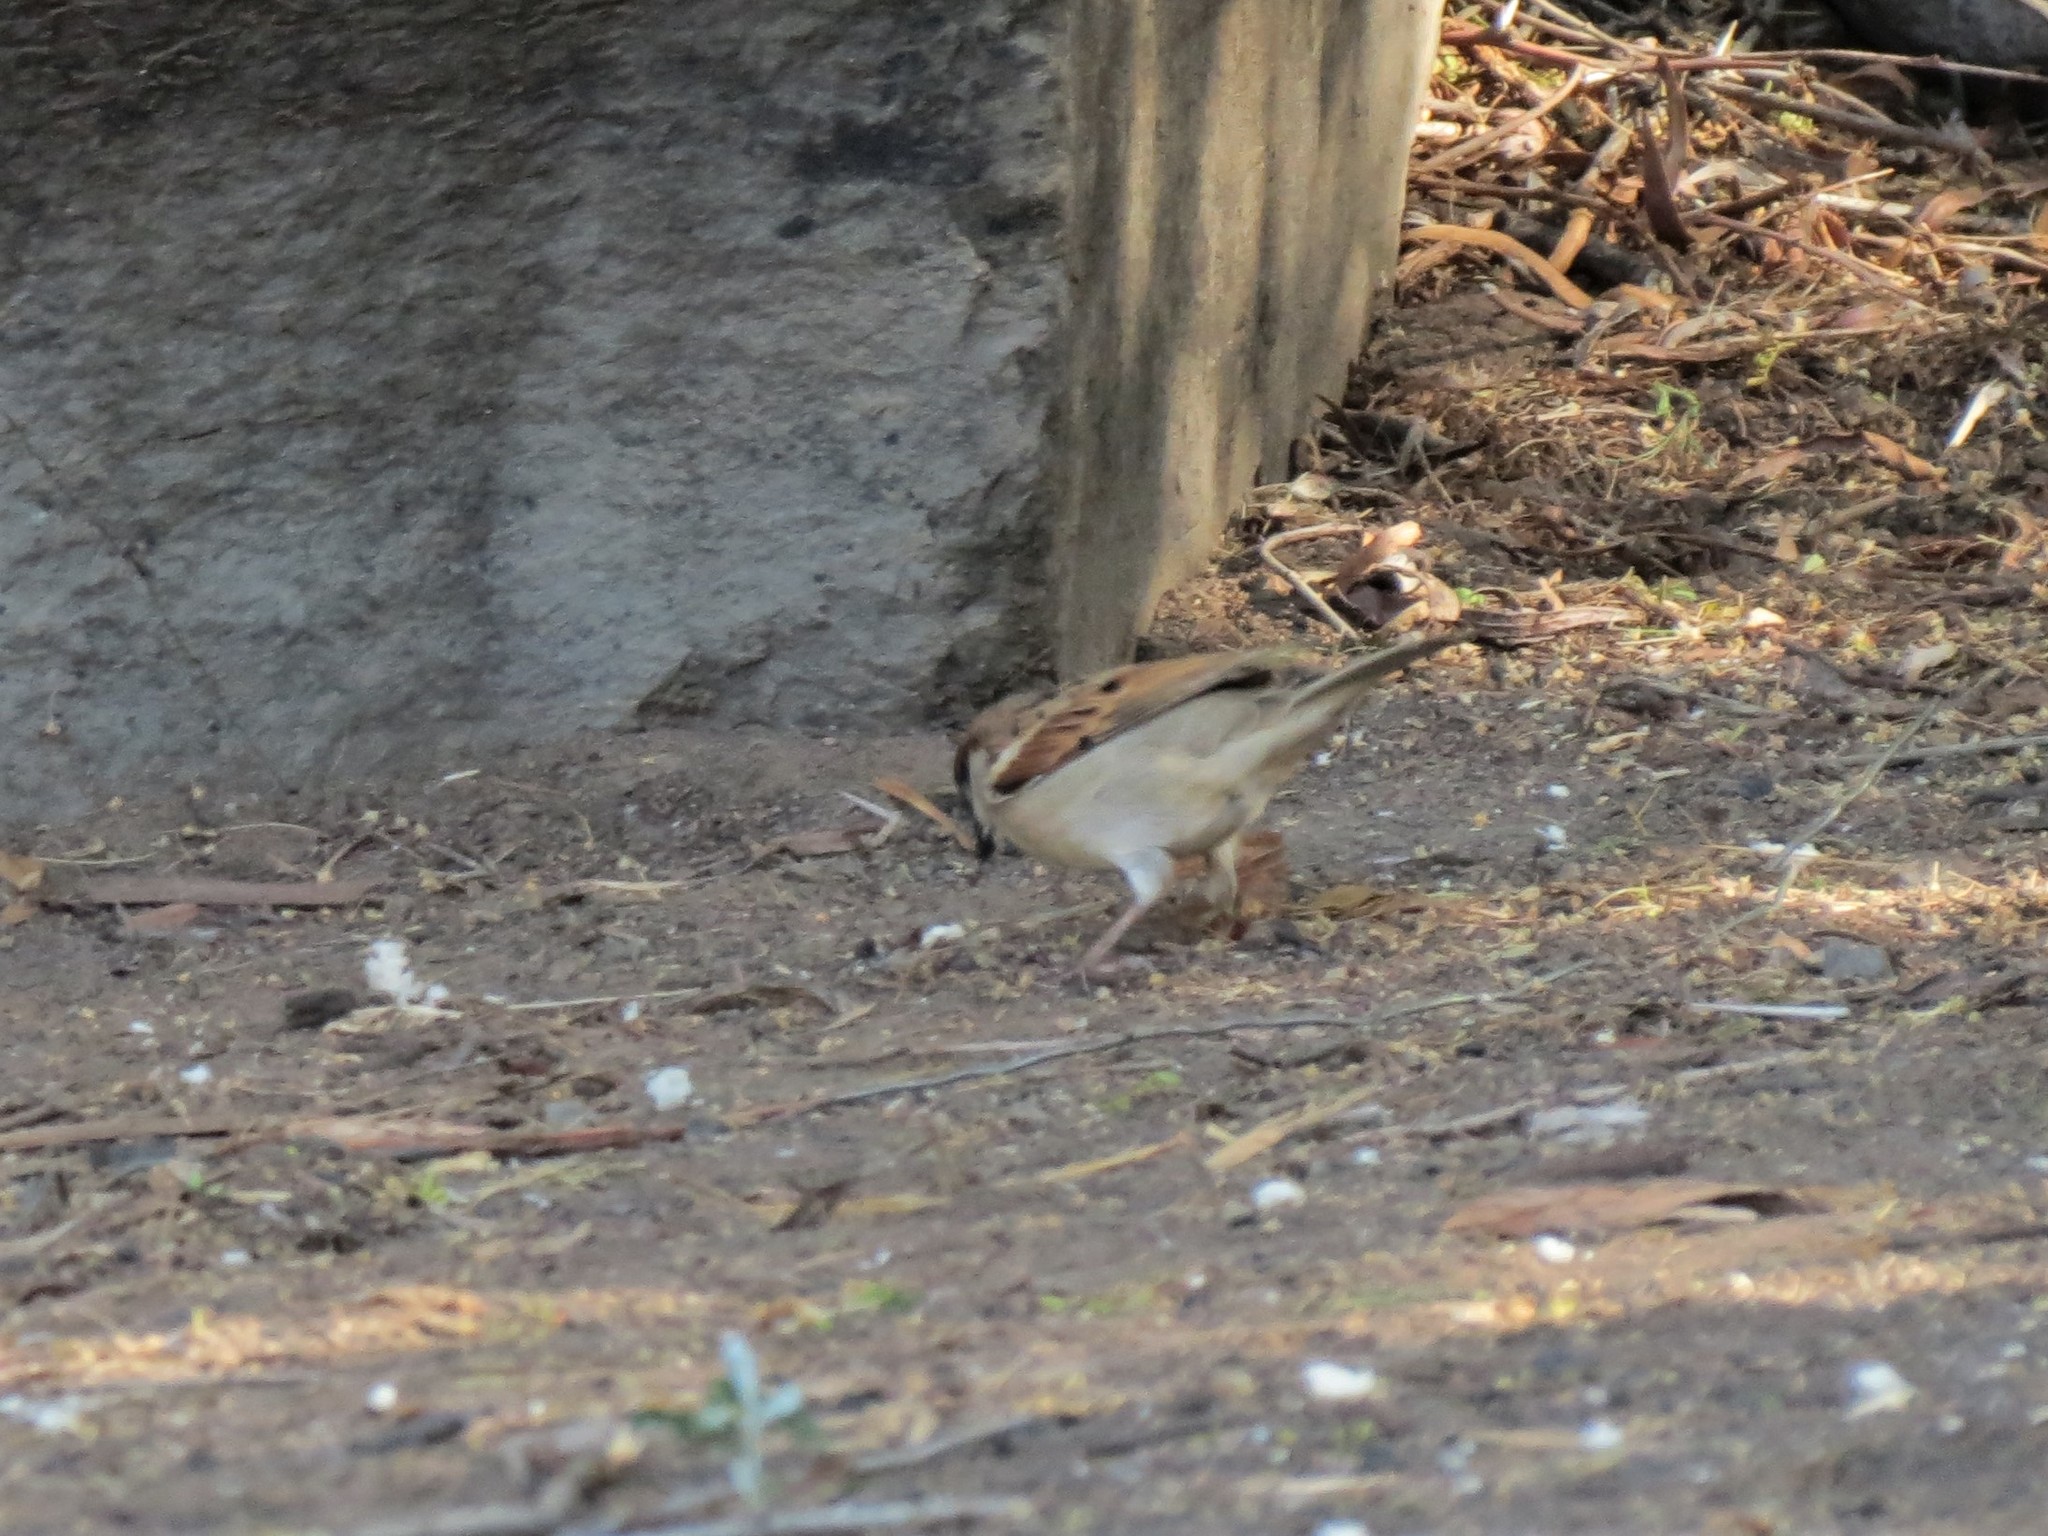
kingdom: Animalia
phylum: Chordata
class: Aves
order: Passeriformes
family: Passeridae
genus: Passer
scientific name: Passer domesticus
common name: House sparrow
